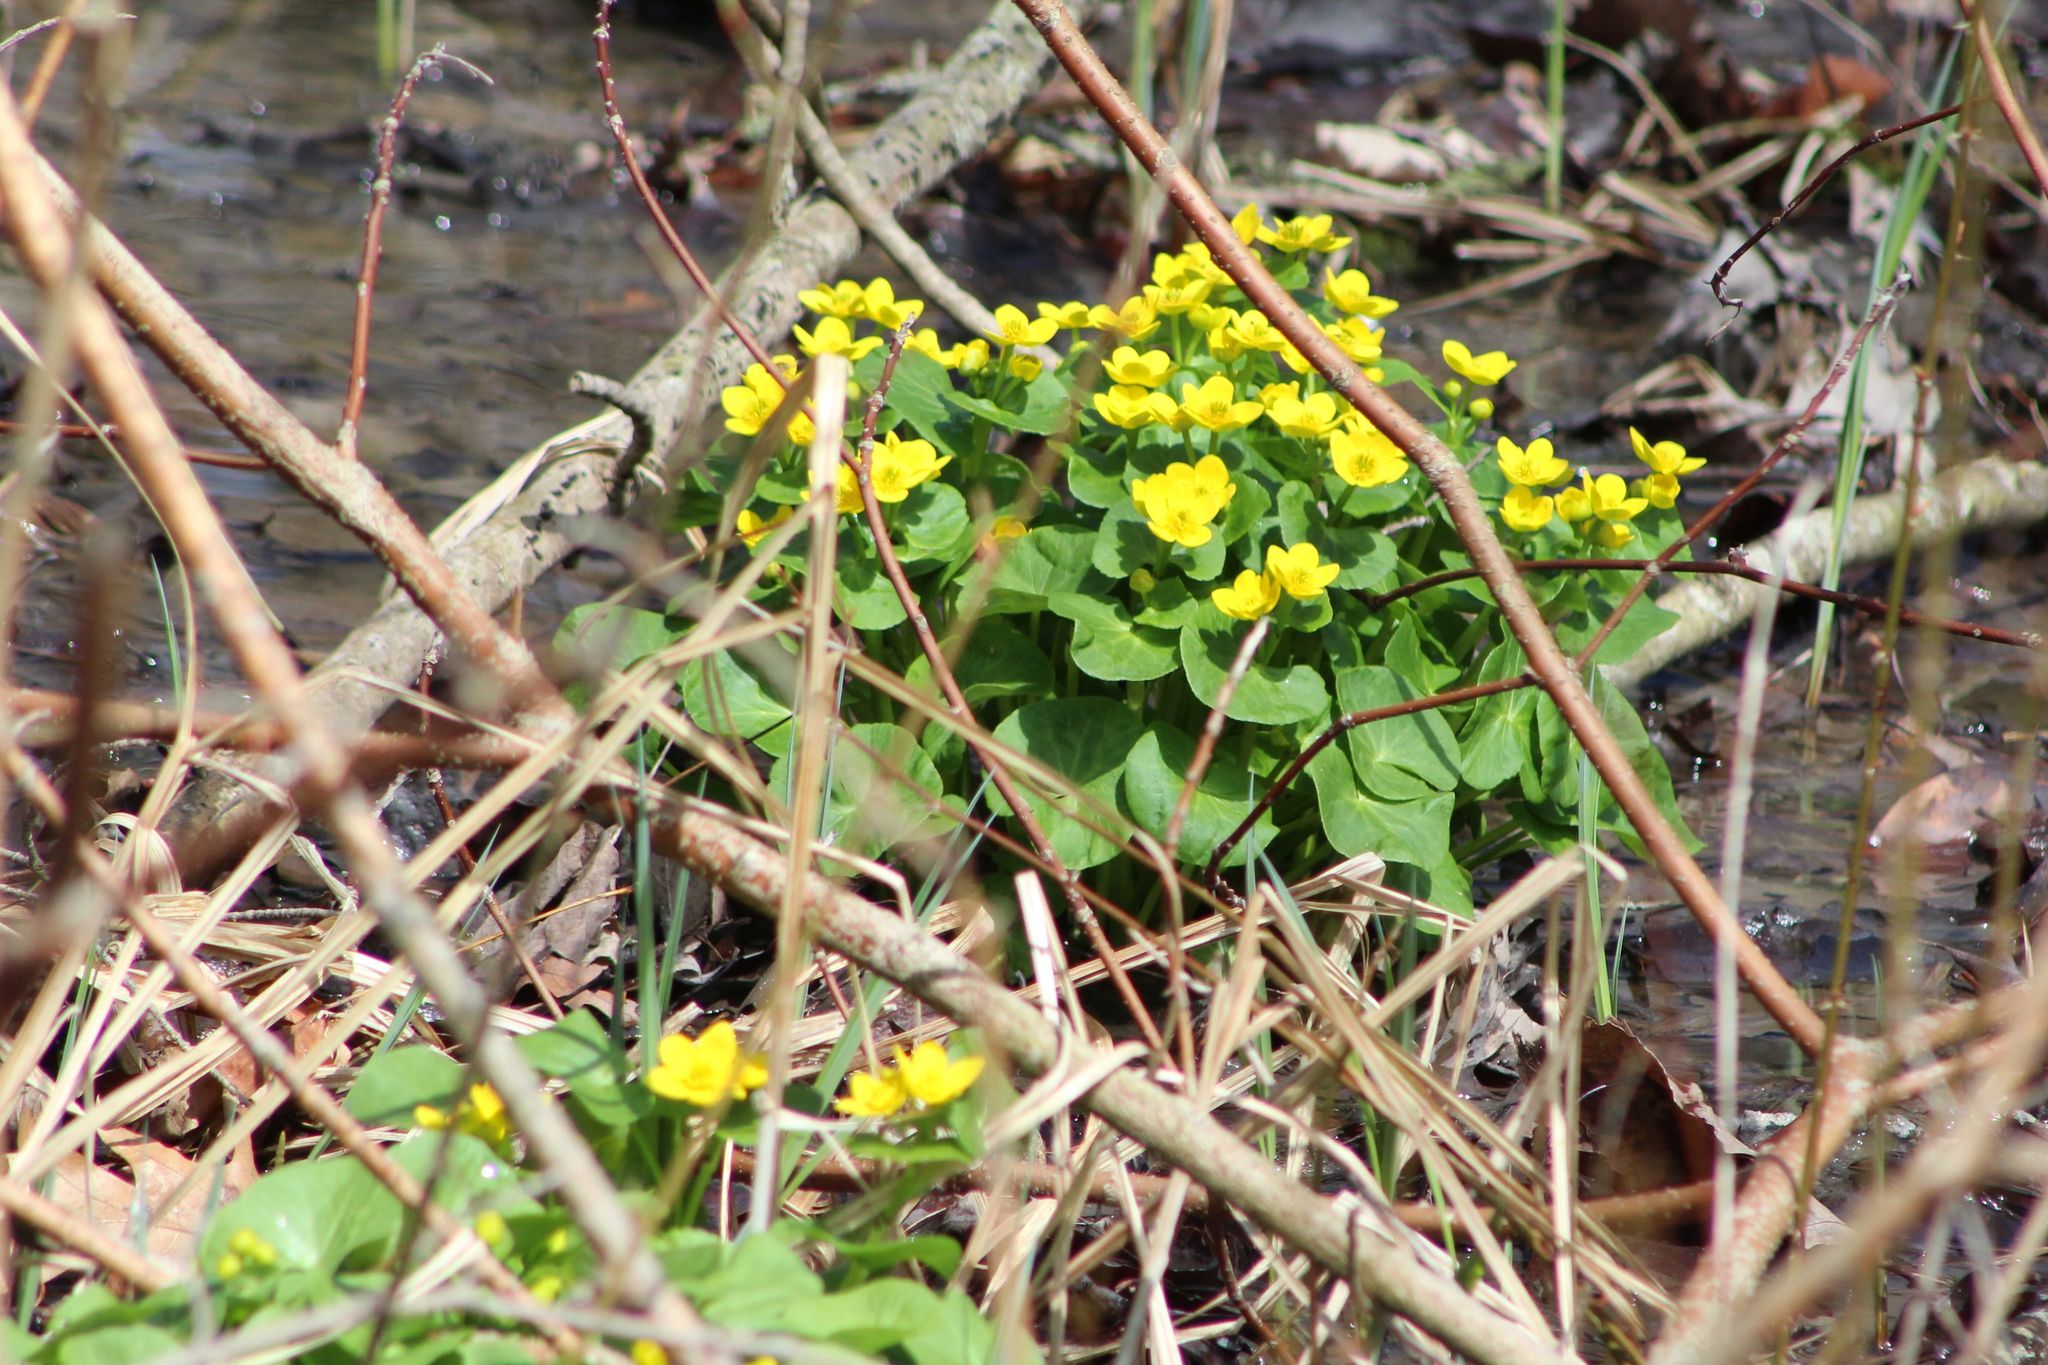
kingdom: Plantae
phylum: Tracheophyta
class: Magnoliopsida
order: Ranunculales
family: Ranunculaceae
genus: Caltha
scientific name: Caltha palustris
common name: Marsh marigold
